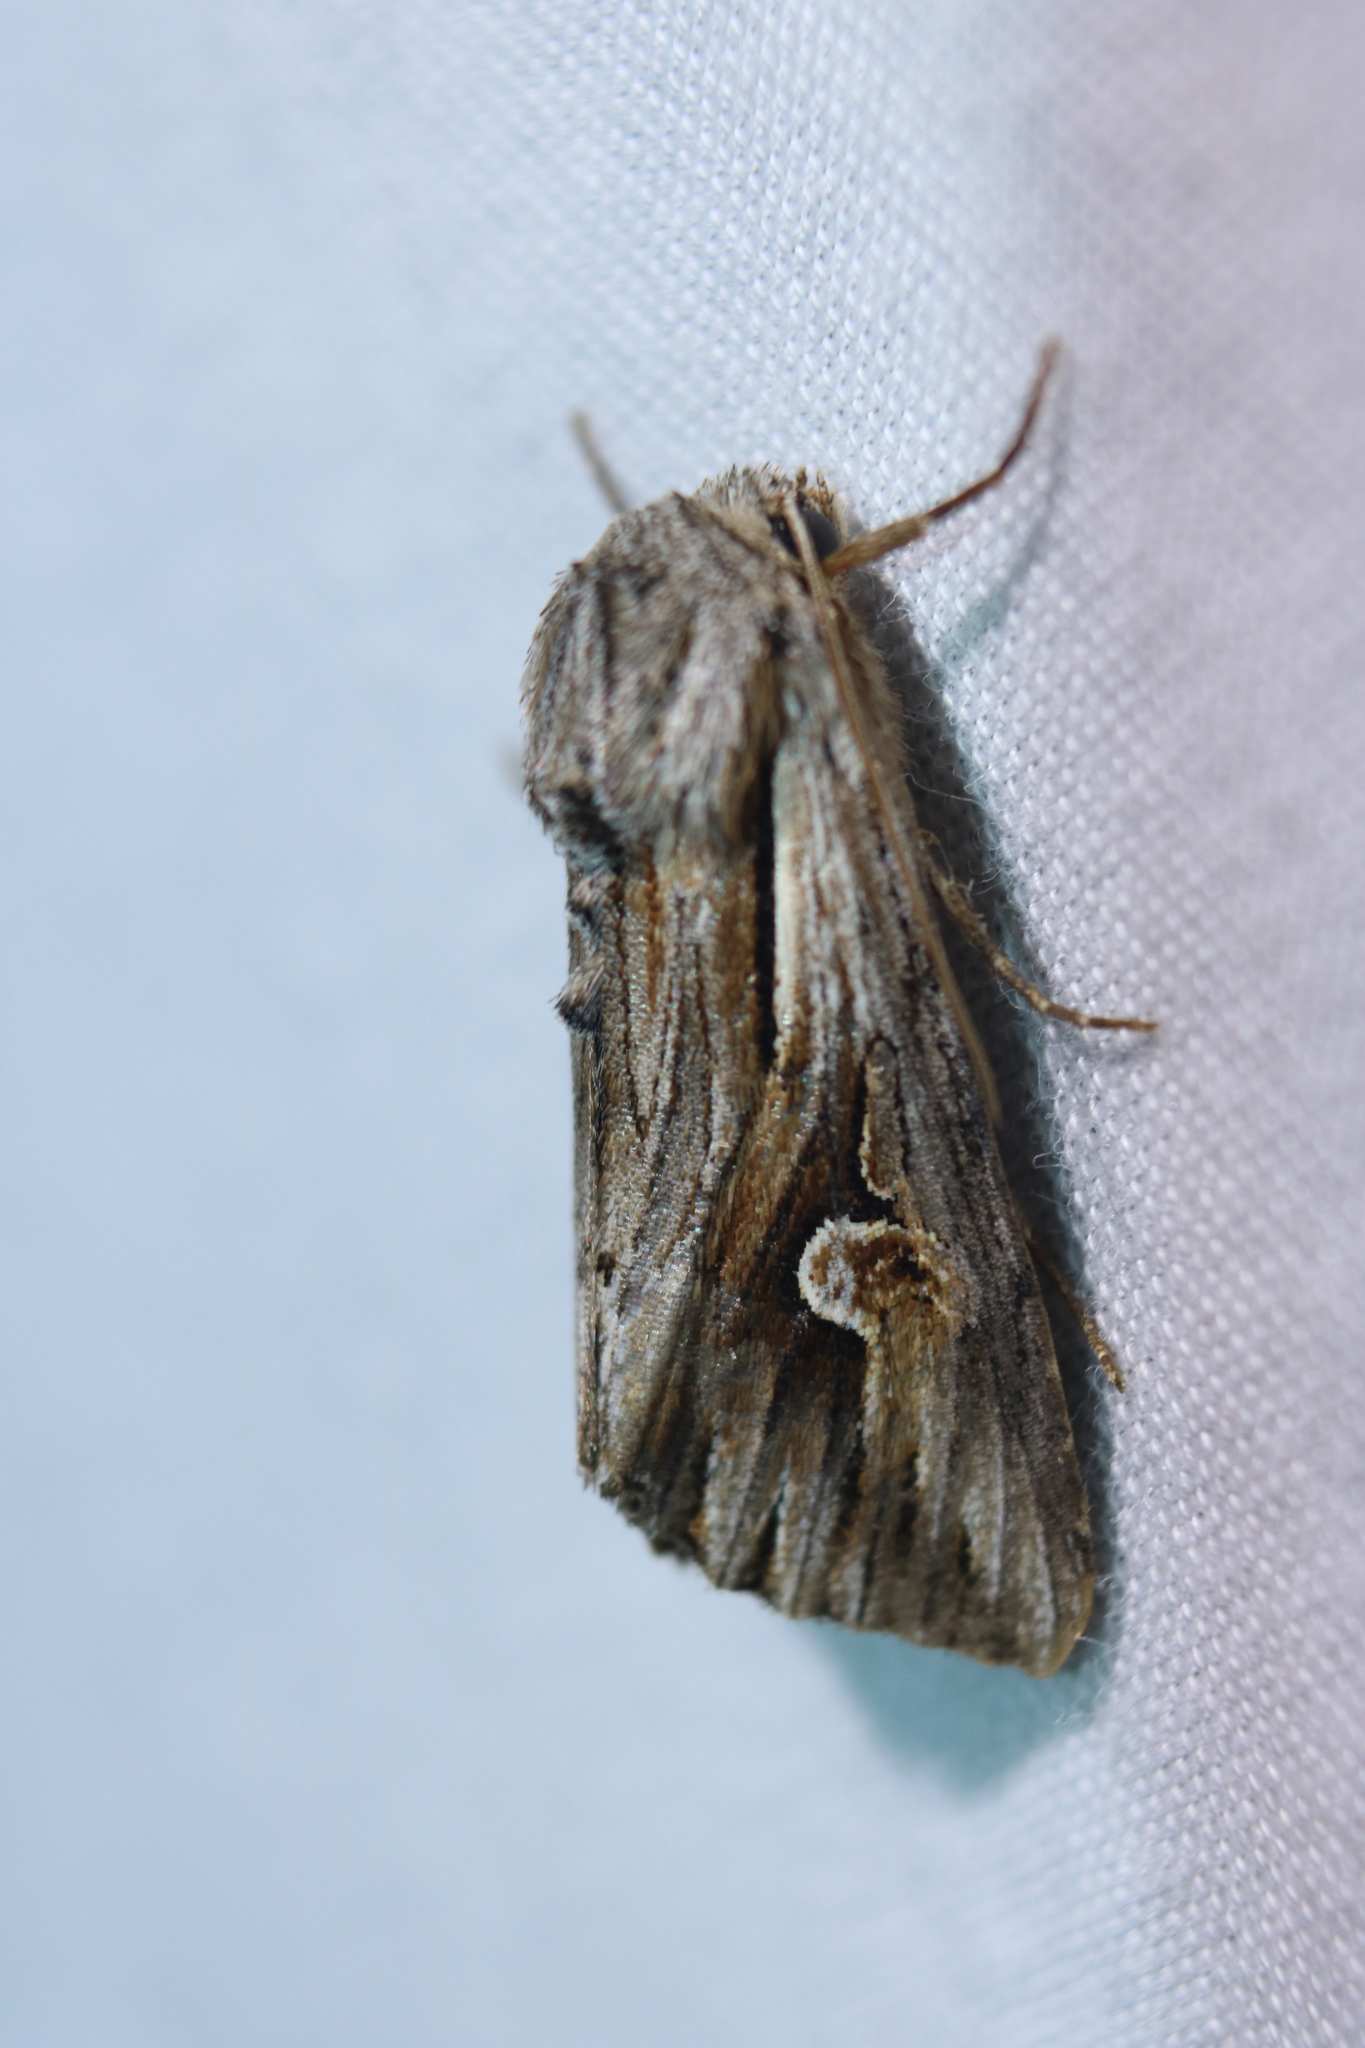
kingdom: Animalia
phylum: Arthropoda
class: Insecta
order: Lepidoptera
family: Noctuidae
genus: Nedra
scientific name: Nedra ramosula
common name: Gray half-spot
